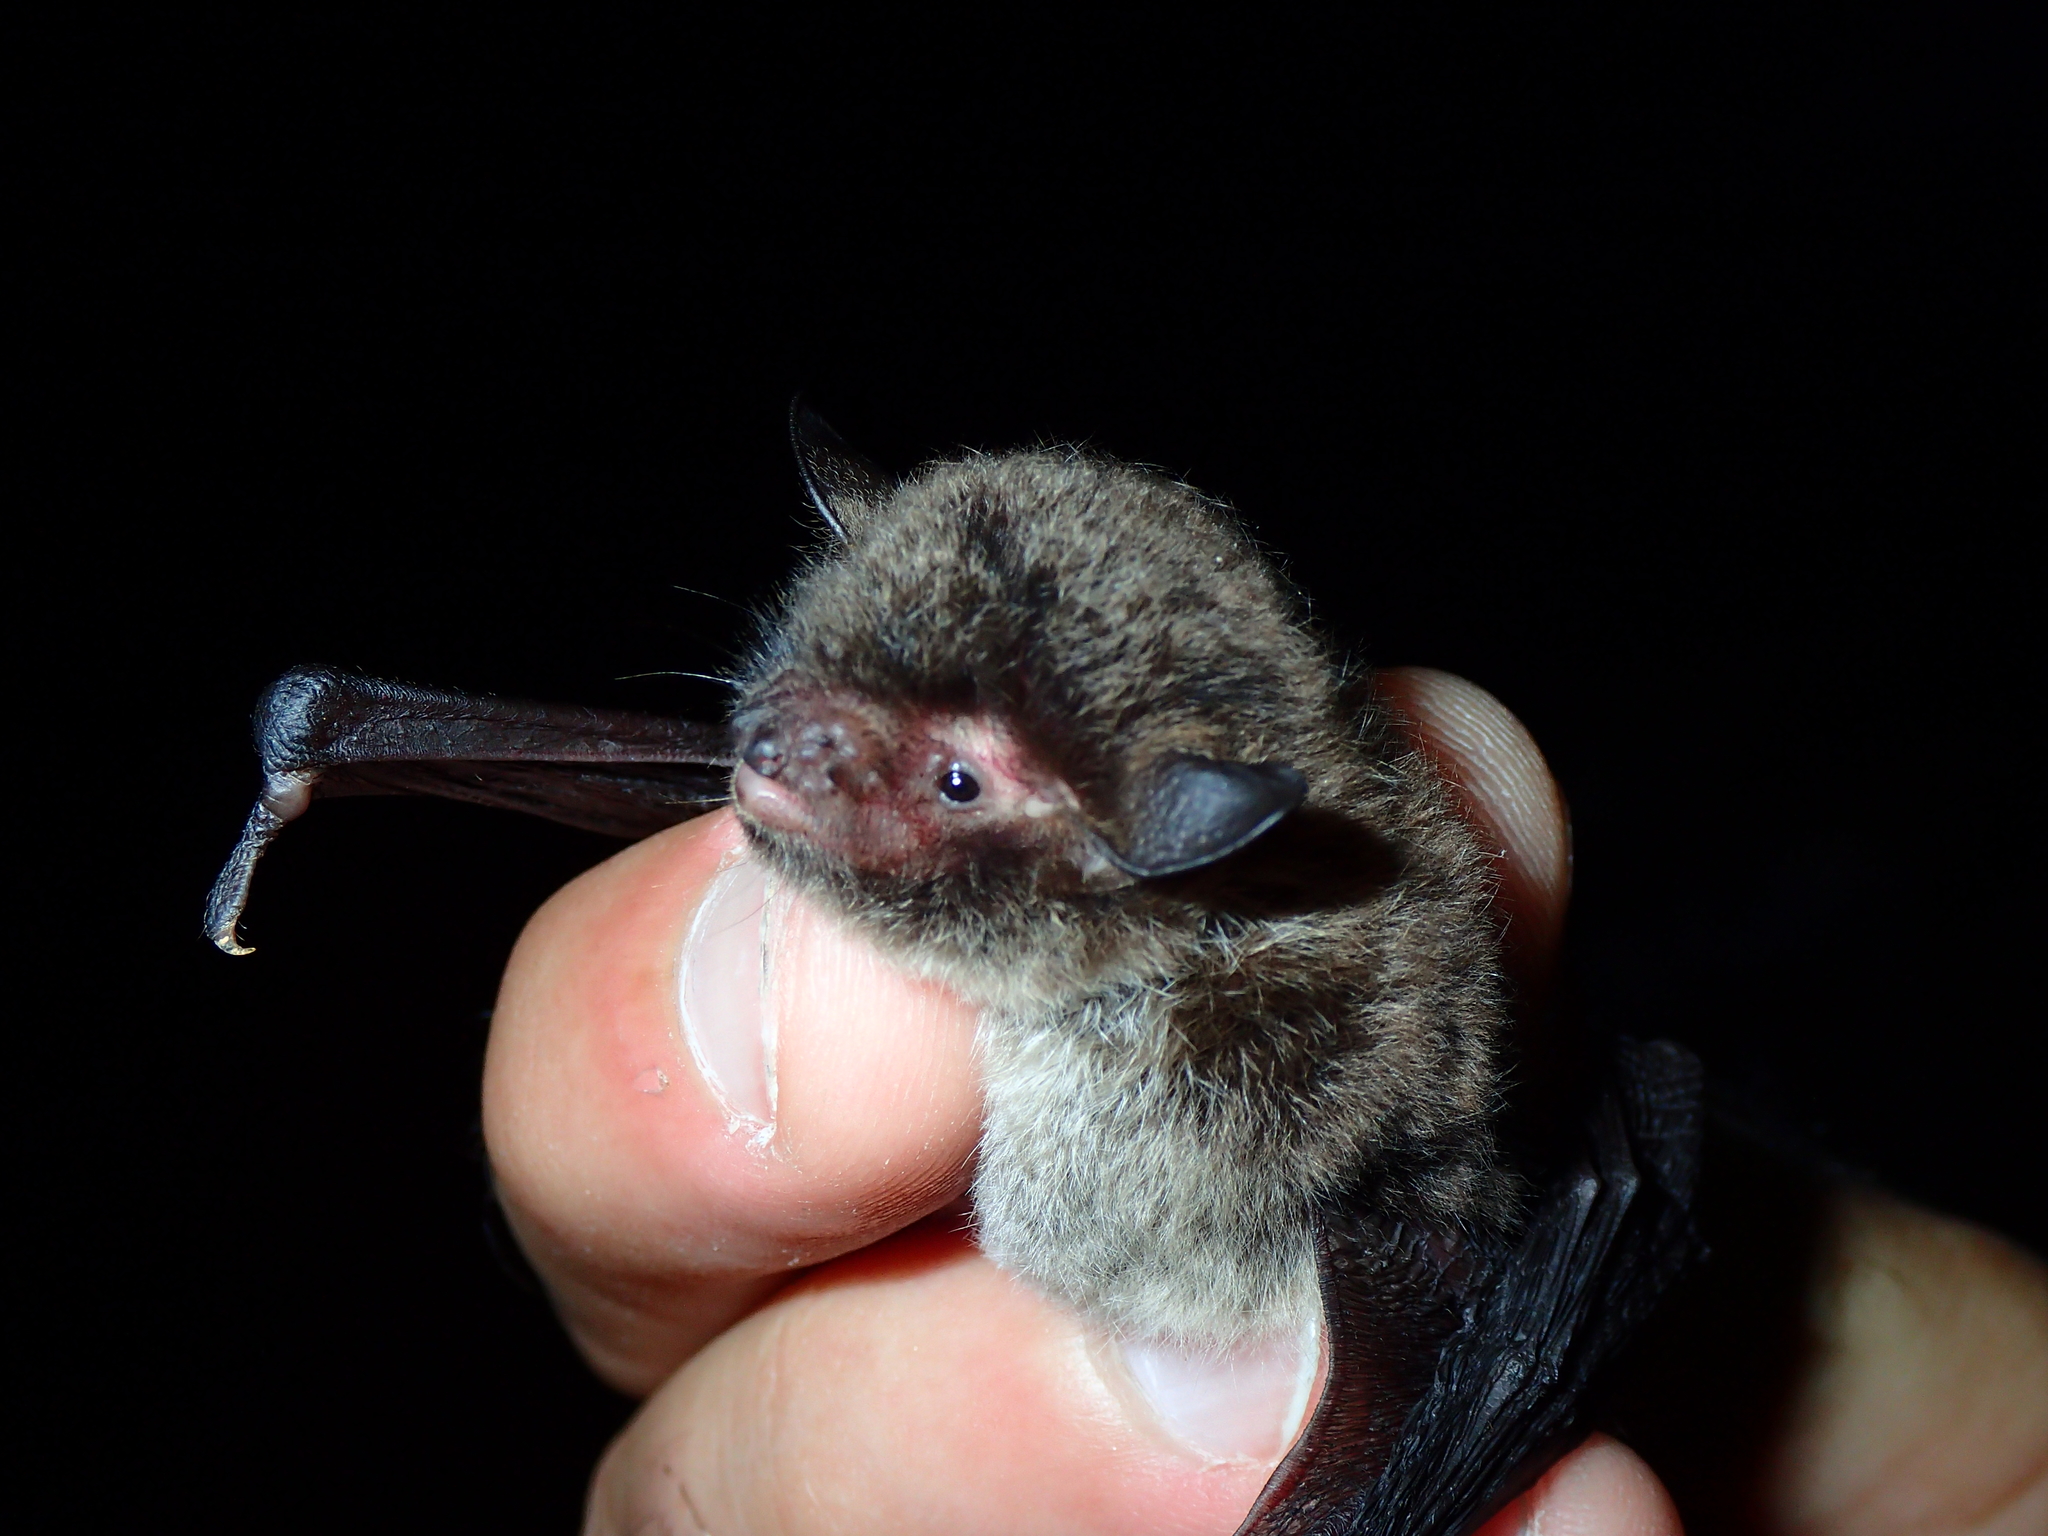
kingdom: Animalia
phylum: Chordata
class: Mammalia
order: Chiroptera
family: Vespertilionidae
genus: Myotis
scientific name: Myotis daubentonii
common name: Daubenton's myotis
